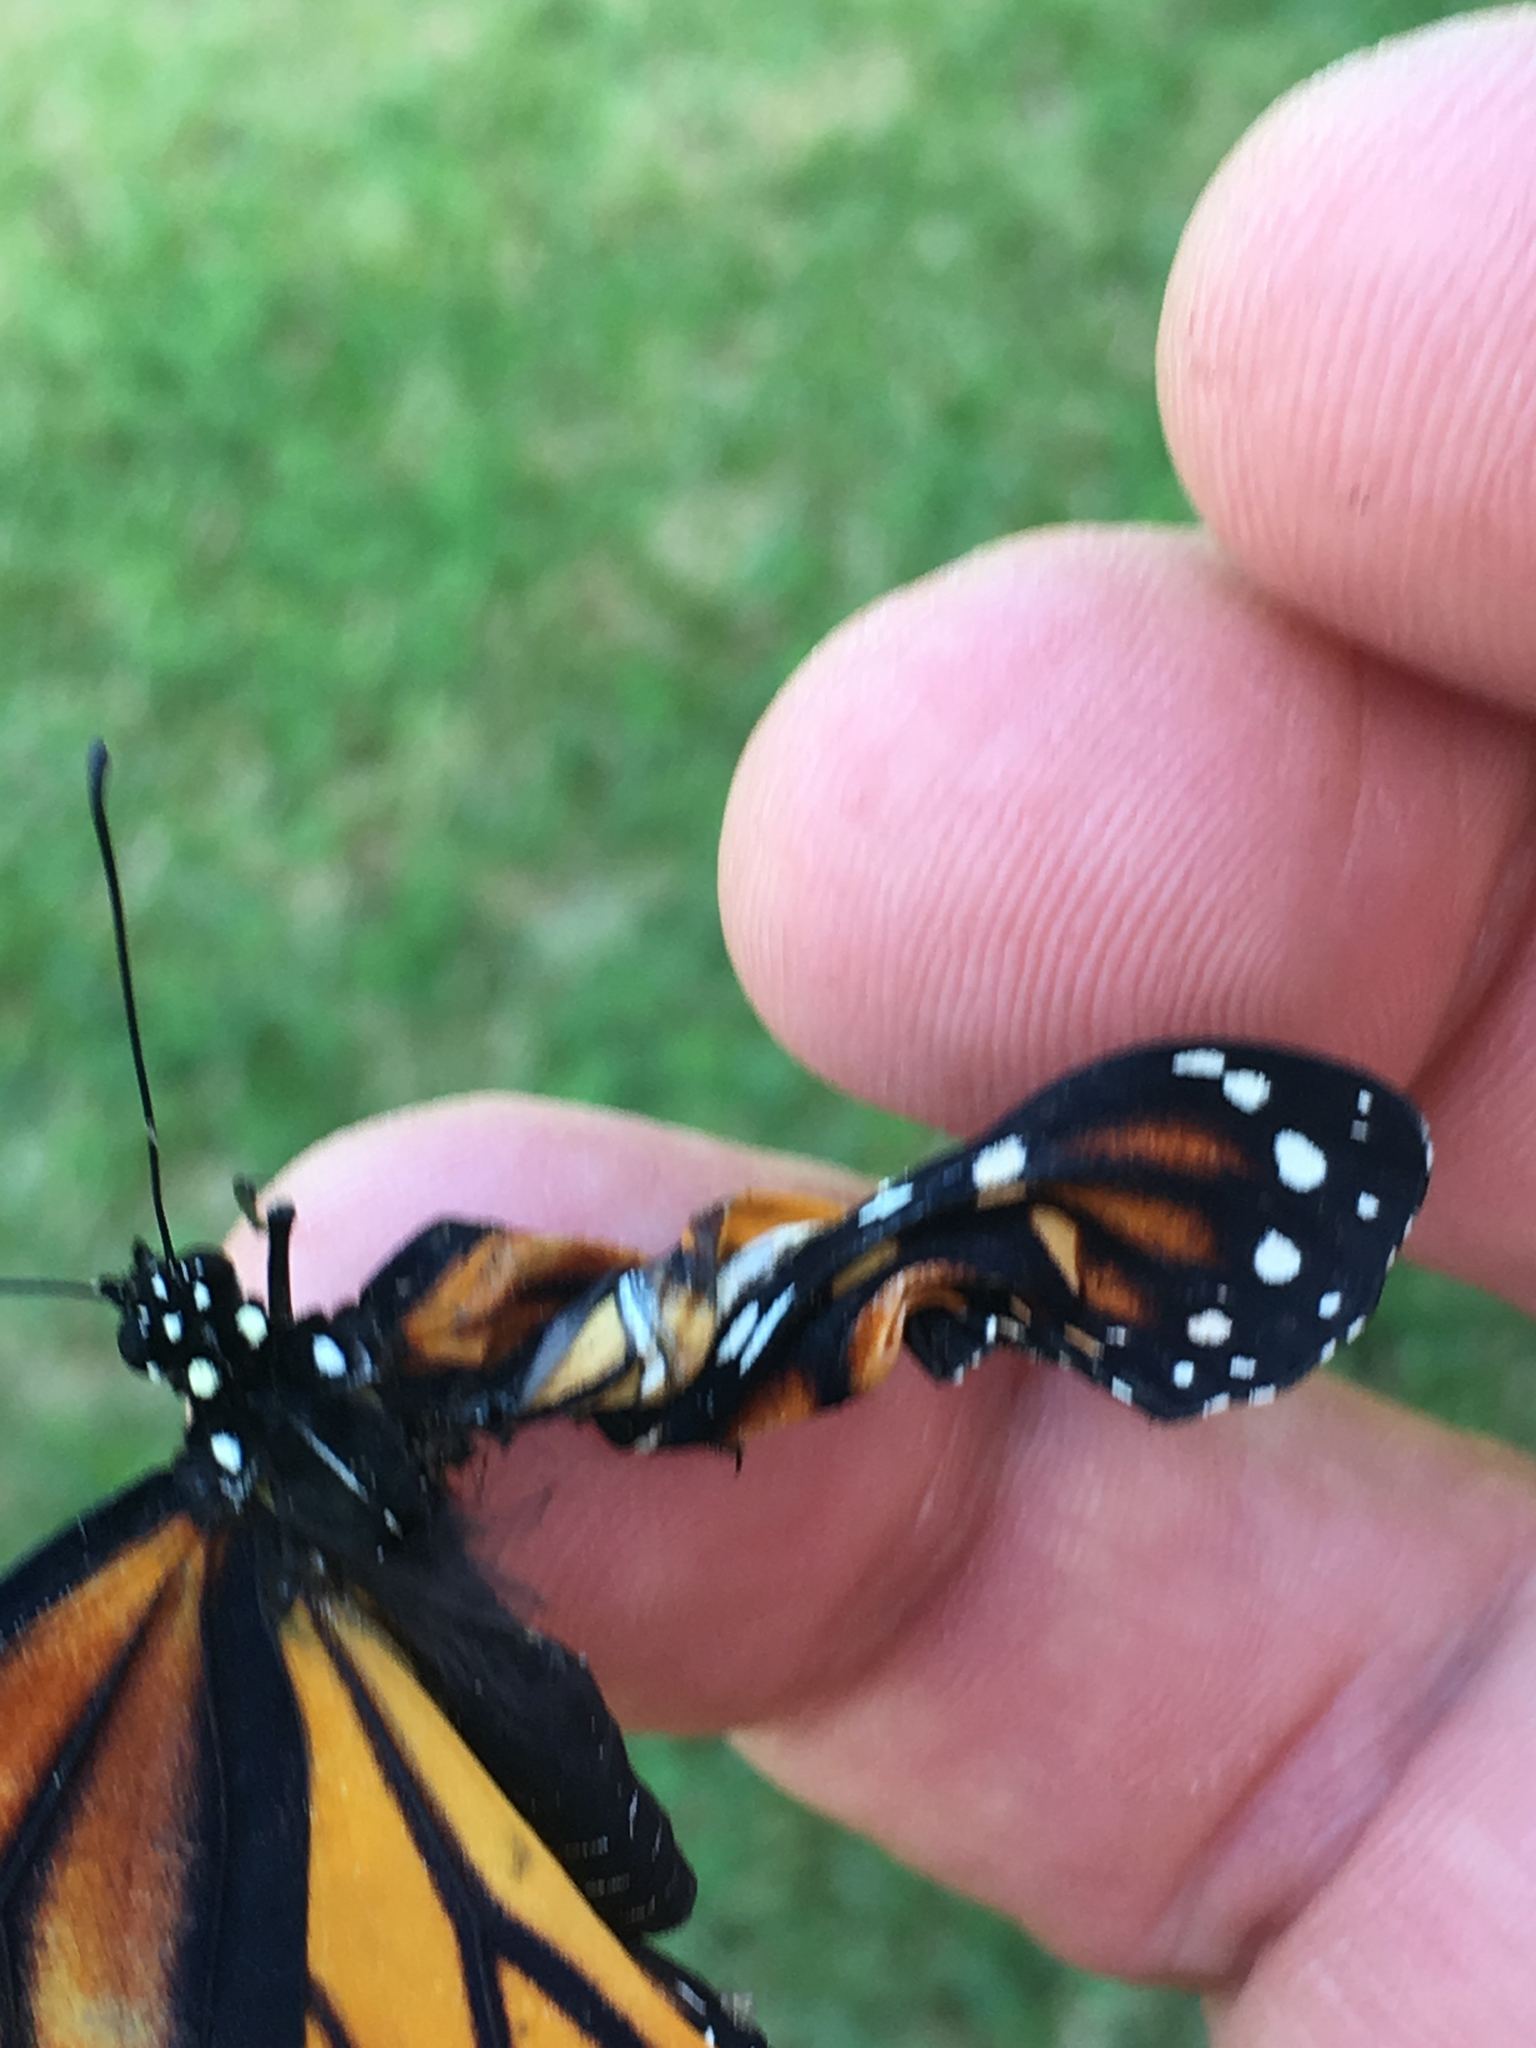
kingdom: Animalia
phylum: Arthropoda
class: Insecta
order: Lepidoptera
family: Nymphalidae
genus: Danaus
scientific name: Danaus plexippus
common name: Monarch
